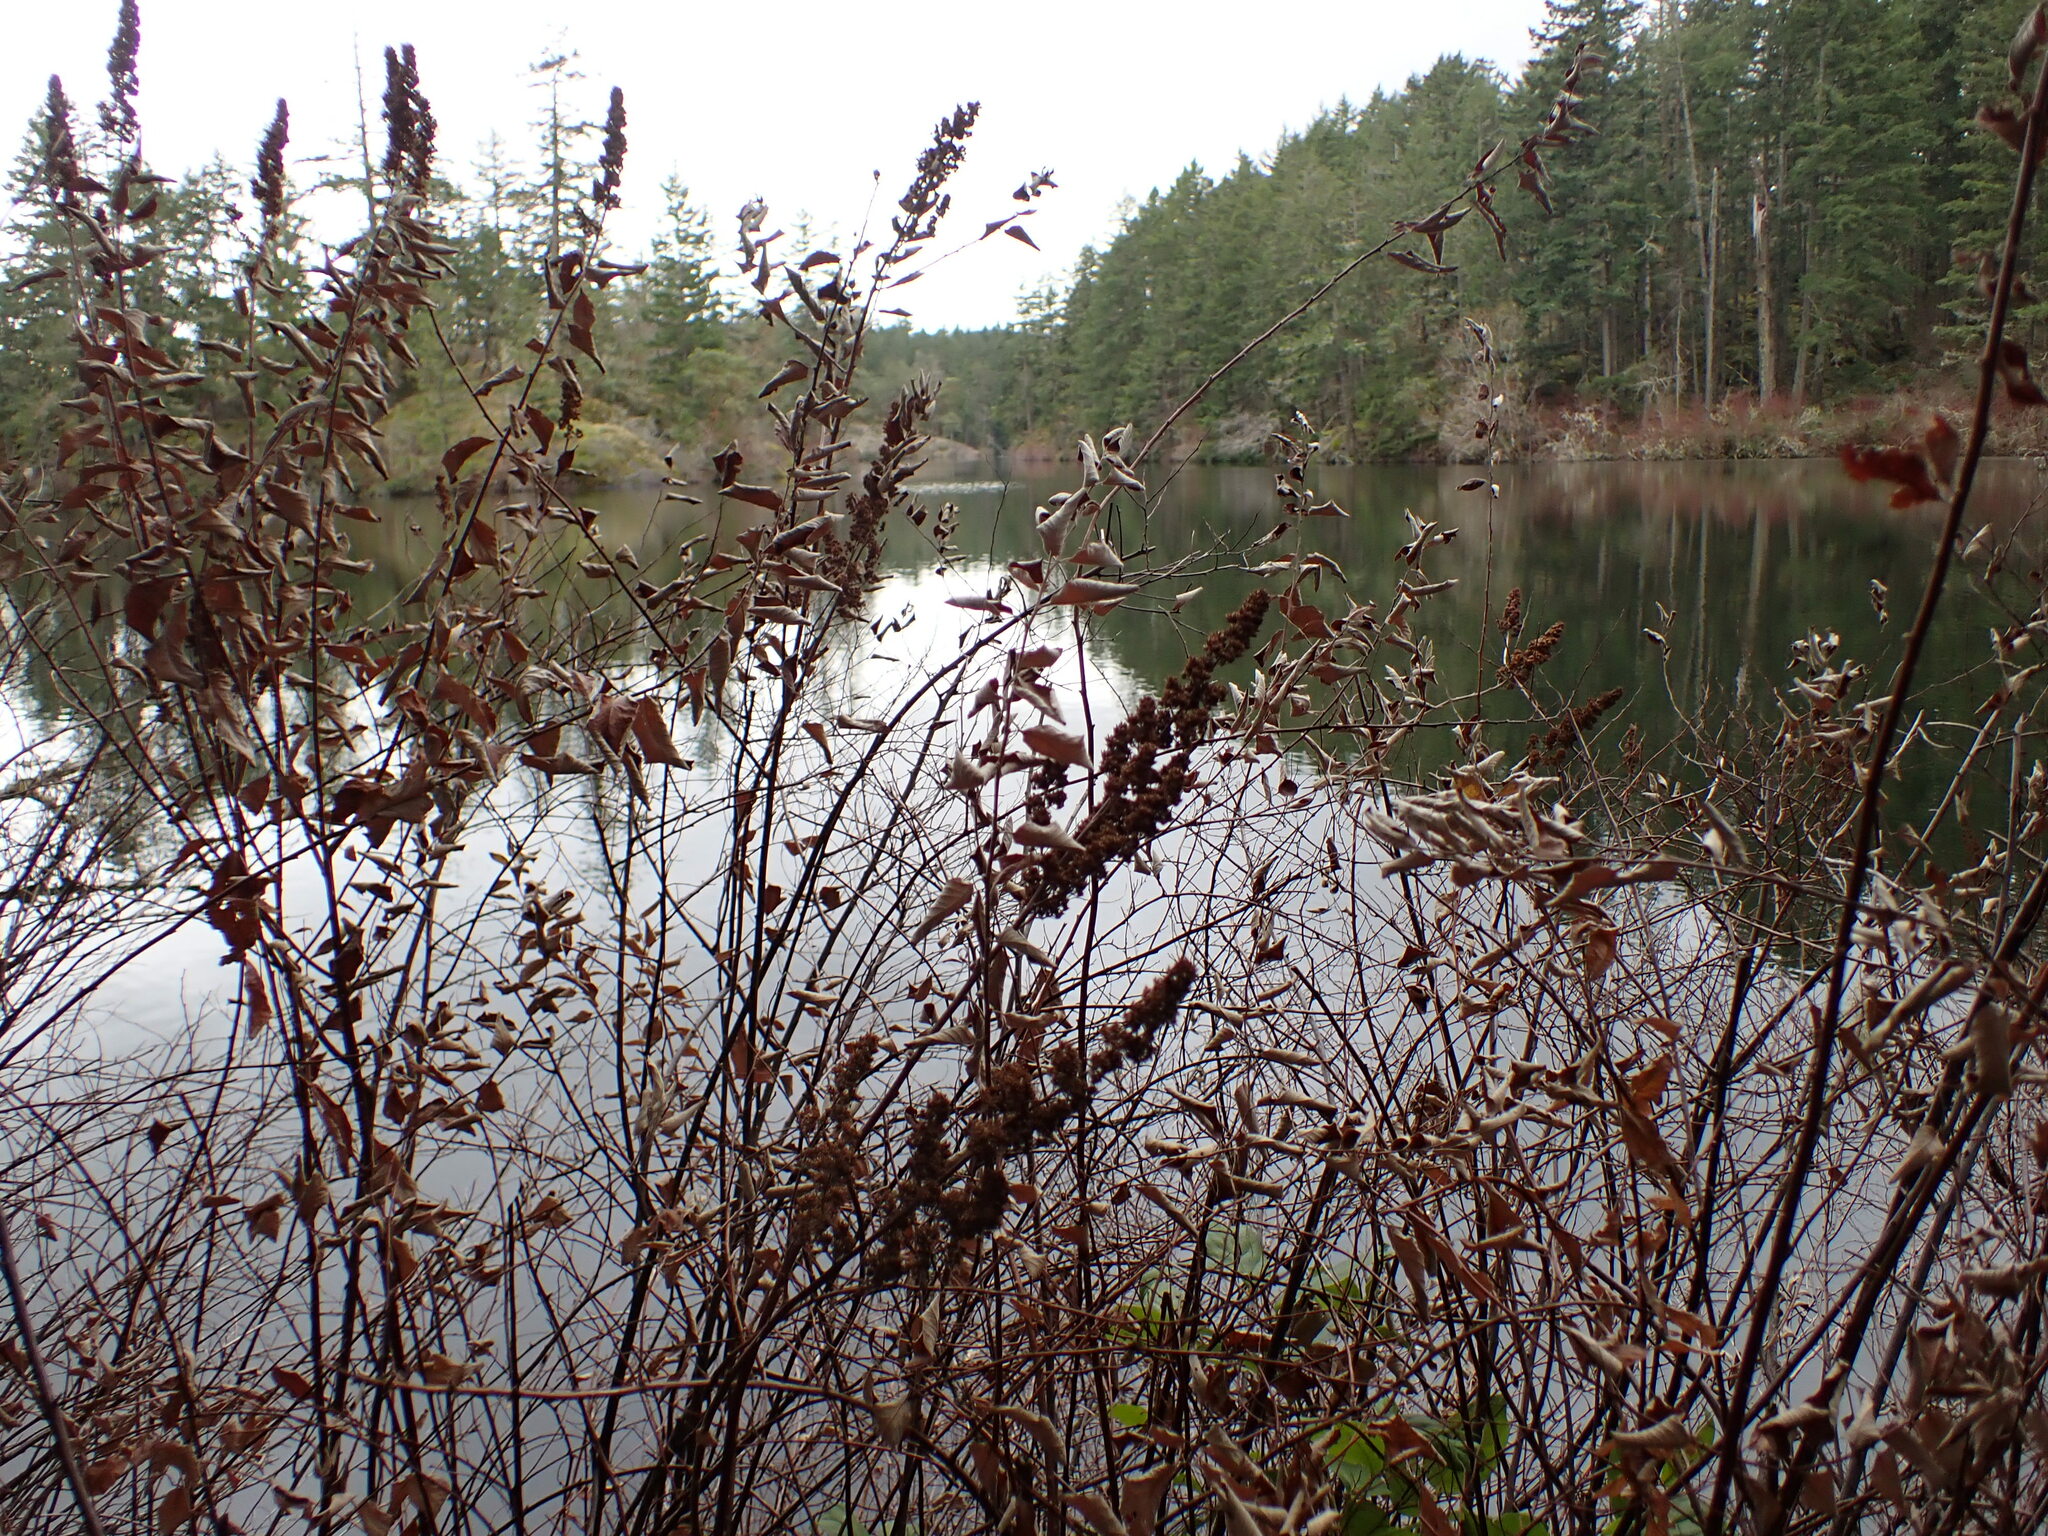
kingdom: Plantae
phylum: Tracheophyta
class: Magnoliopsida
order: Rosales
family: Rosaceae
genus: Spiraea
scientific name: Spiraea douglasii
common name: Steeplebush
